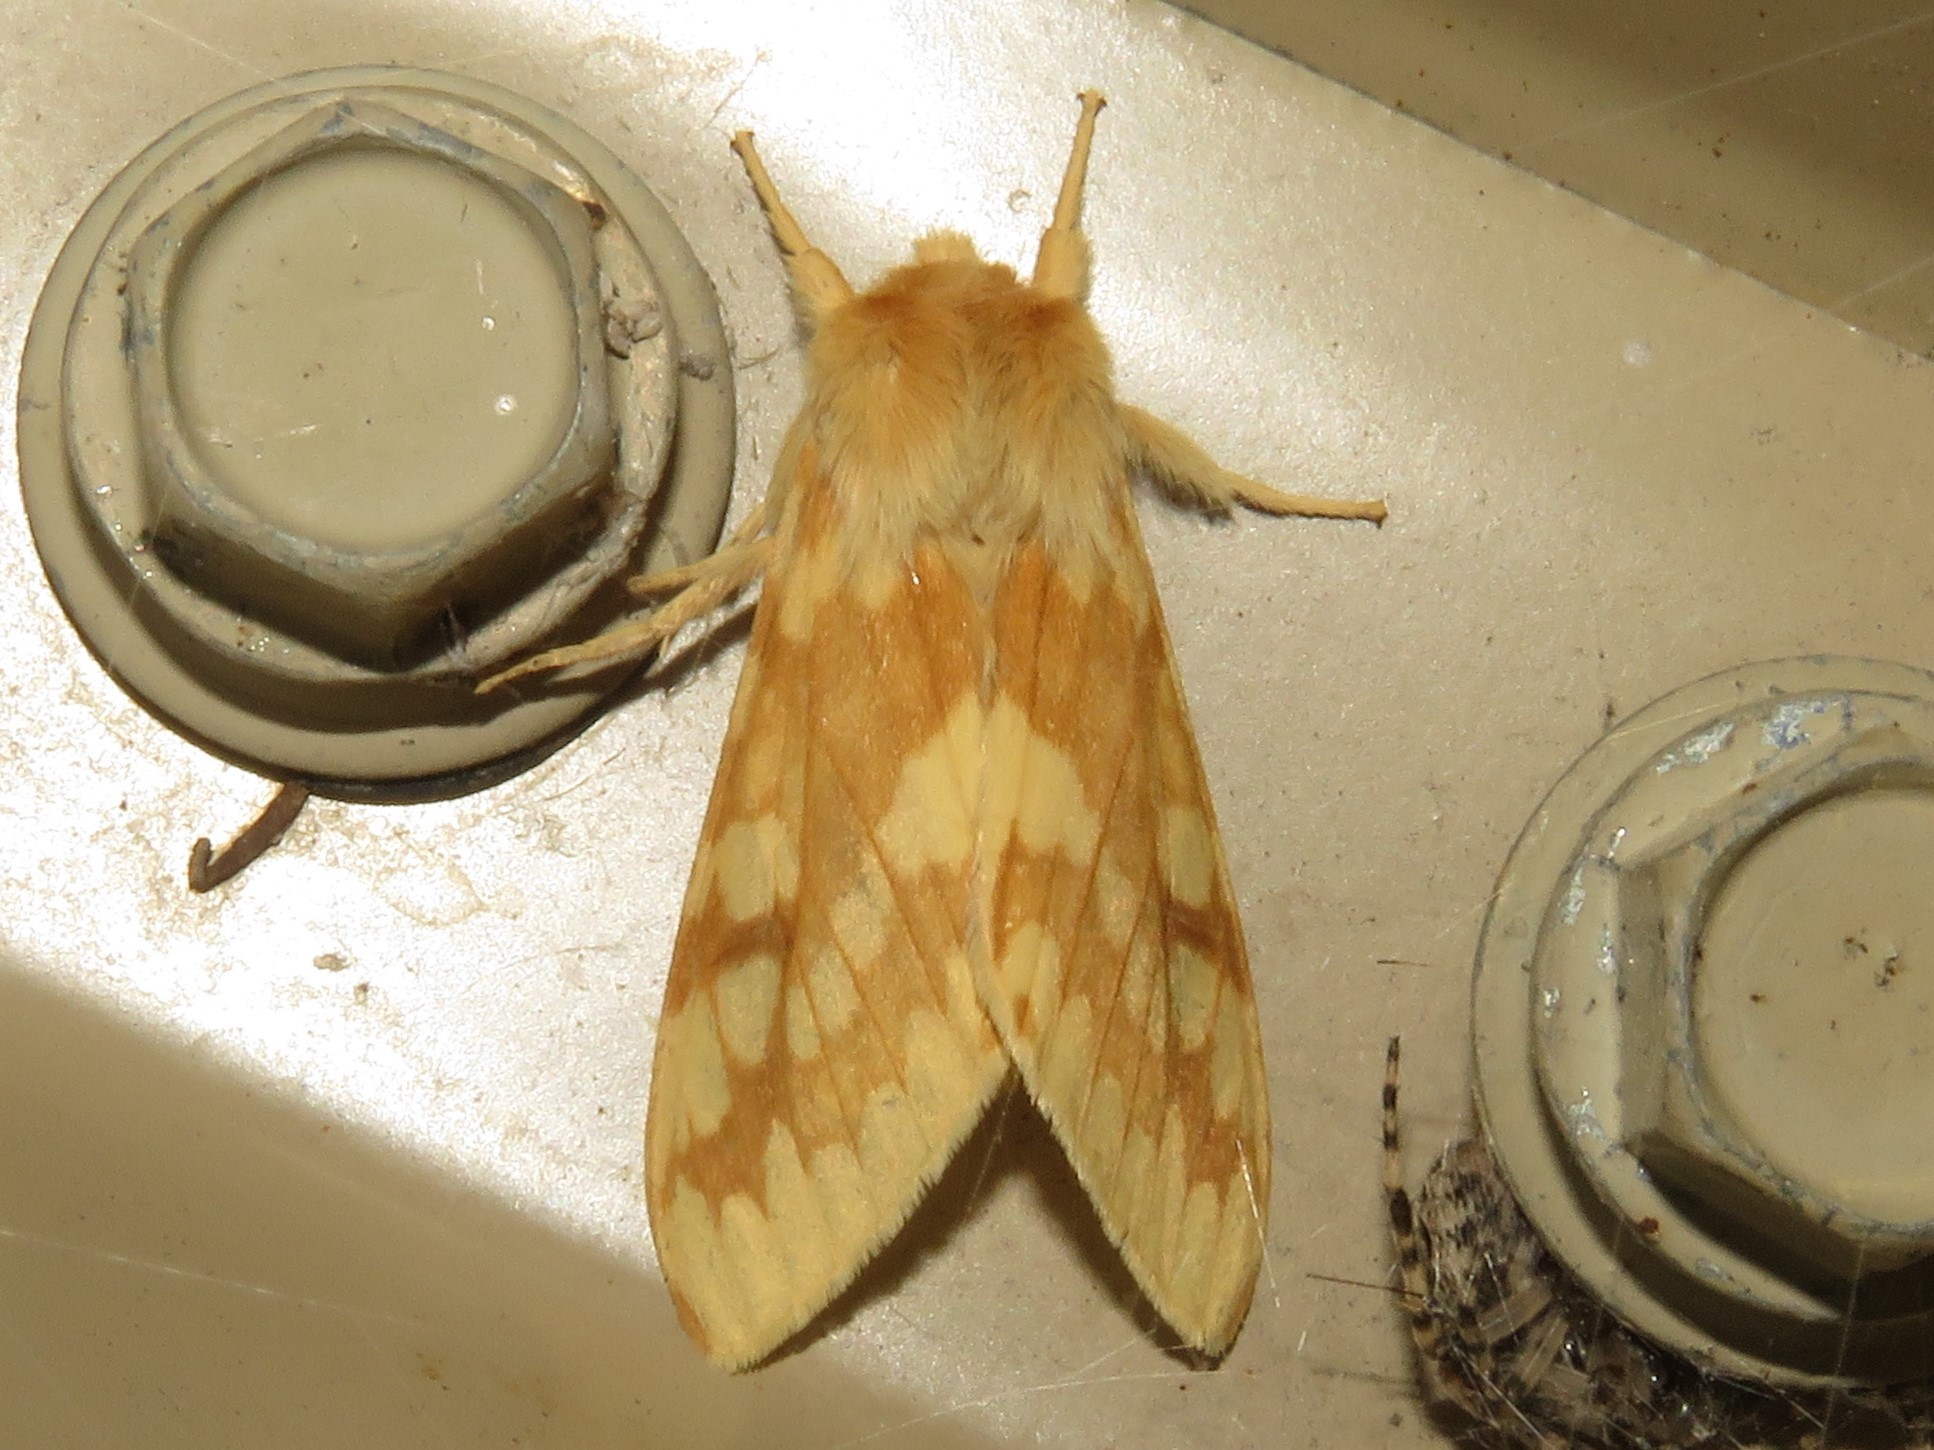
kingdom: Animalia
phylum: Arthropoda
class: Insecta
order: Lepidoptera
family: Erebidae
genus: Lophocampa
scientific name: Lophocampa maculata
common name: Spotted tussock moth
